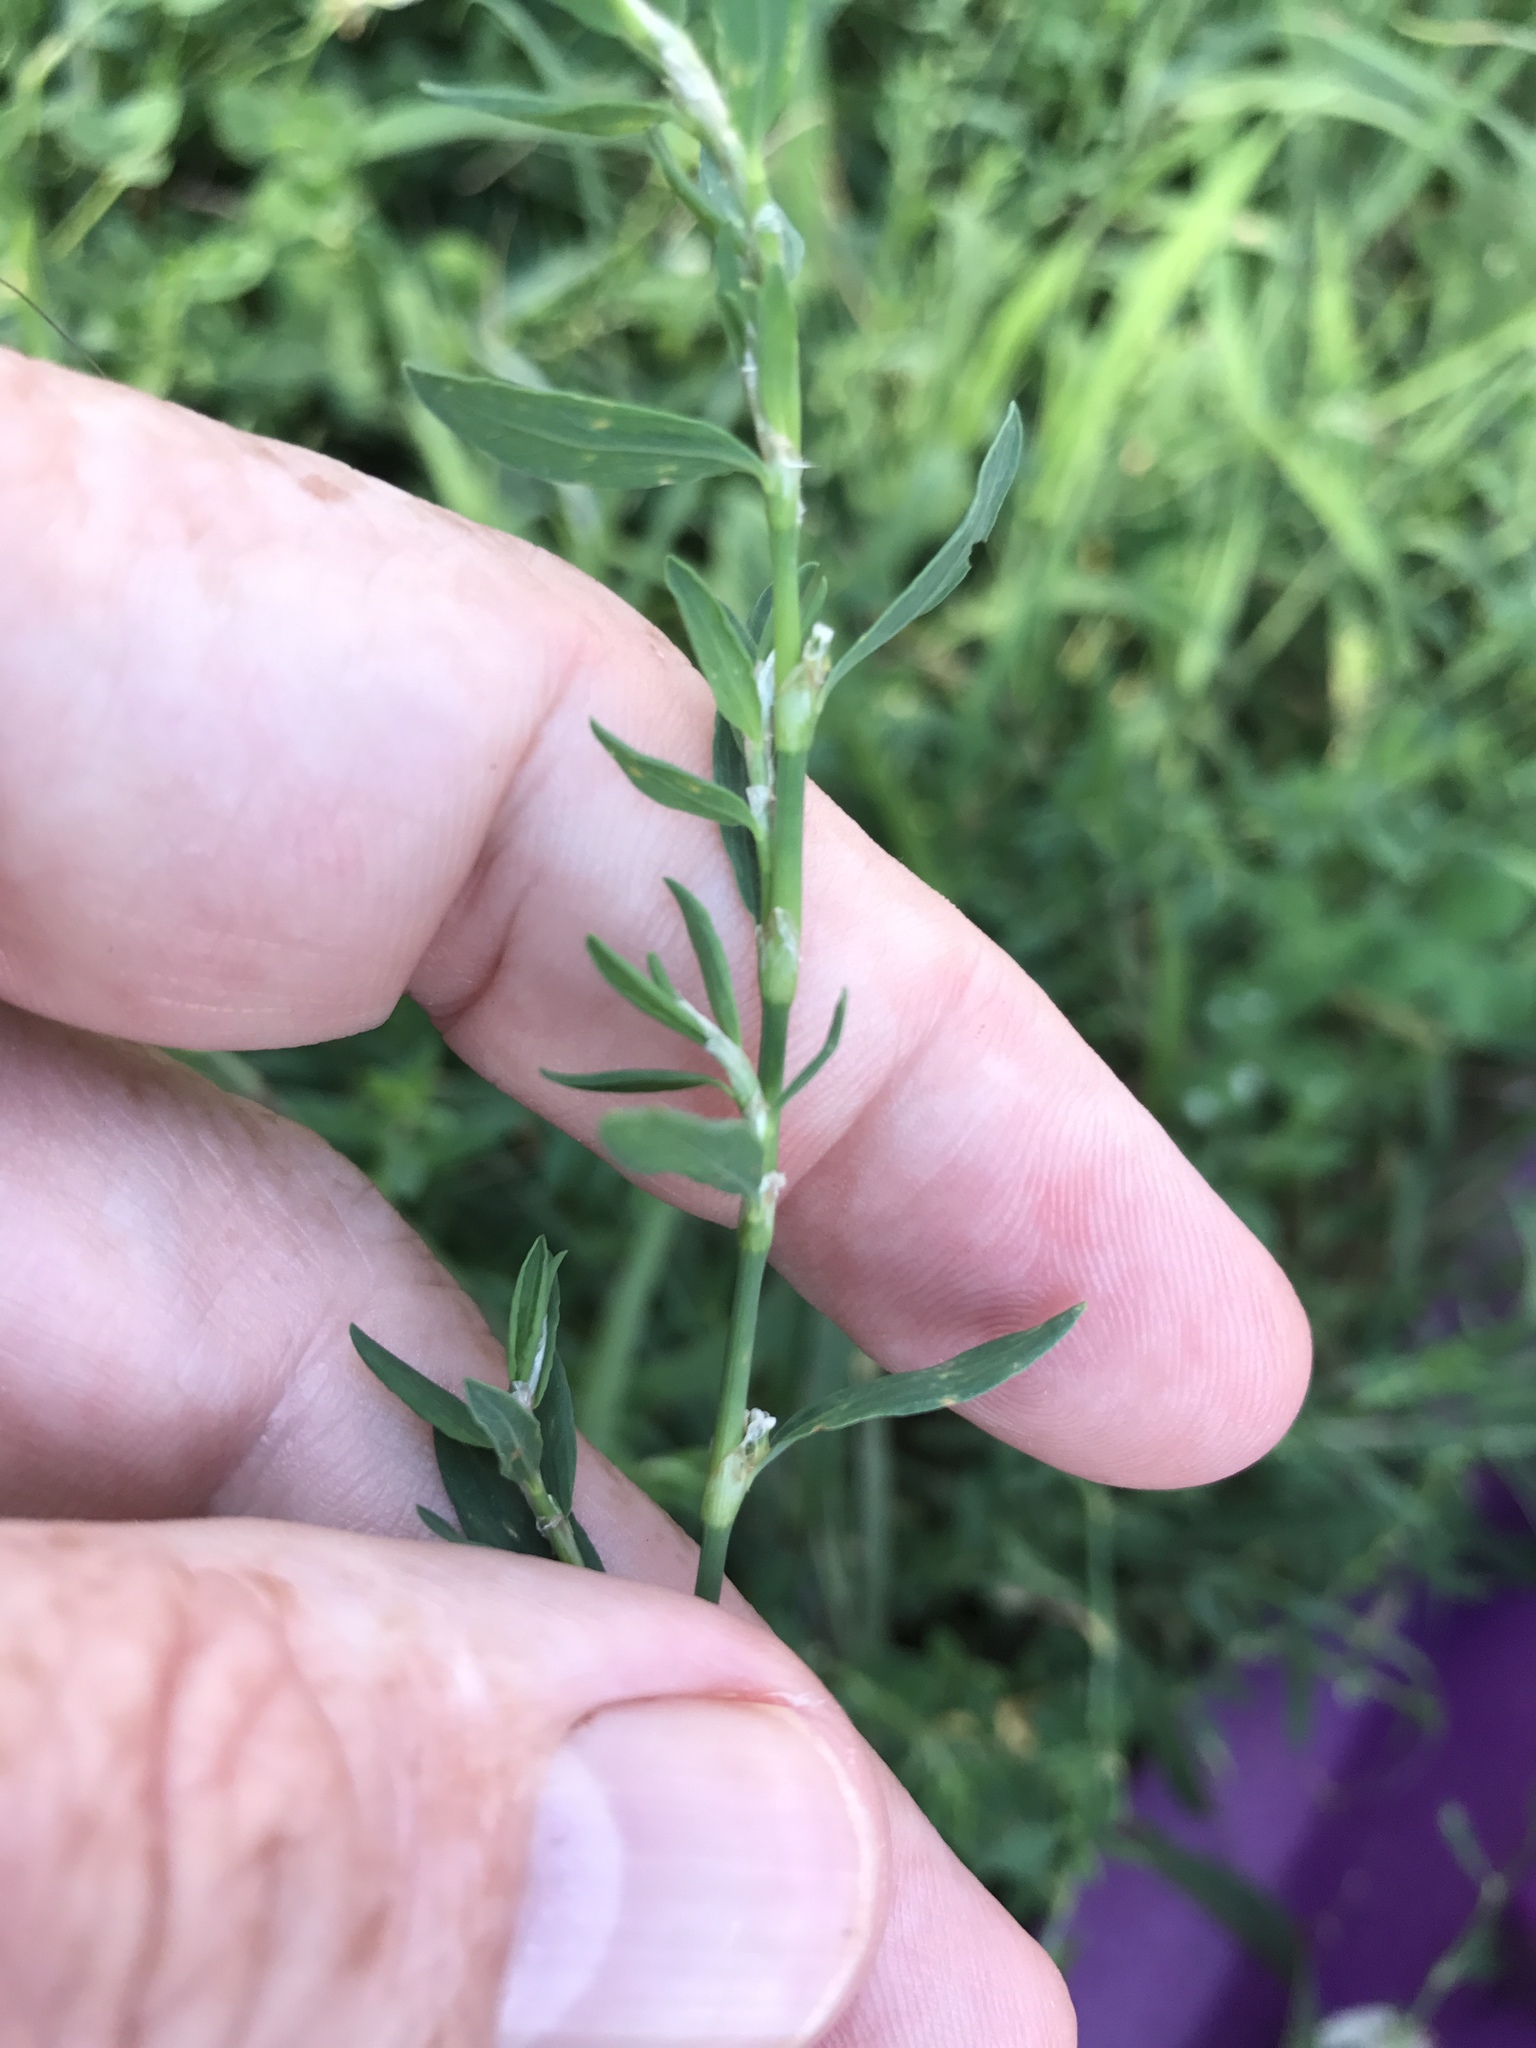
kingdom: Plantae
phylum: Tracheophyta
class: Magnoliopsida
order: Caryophyllales
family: Polygonaceae
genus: Polygonum
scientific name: Polygonum aviculare
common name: Prostrate knotweed
